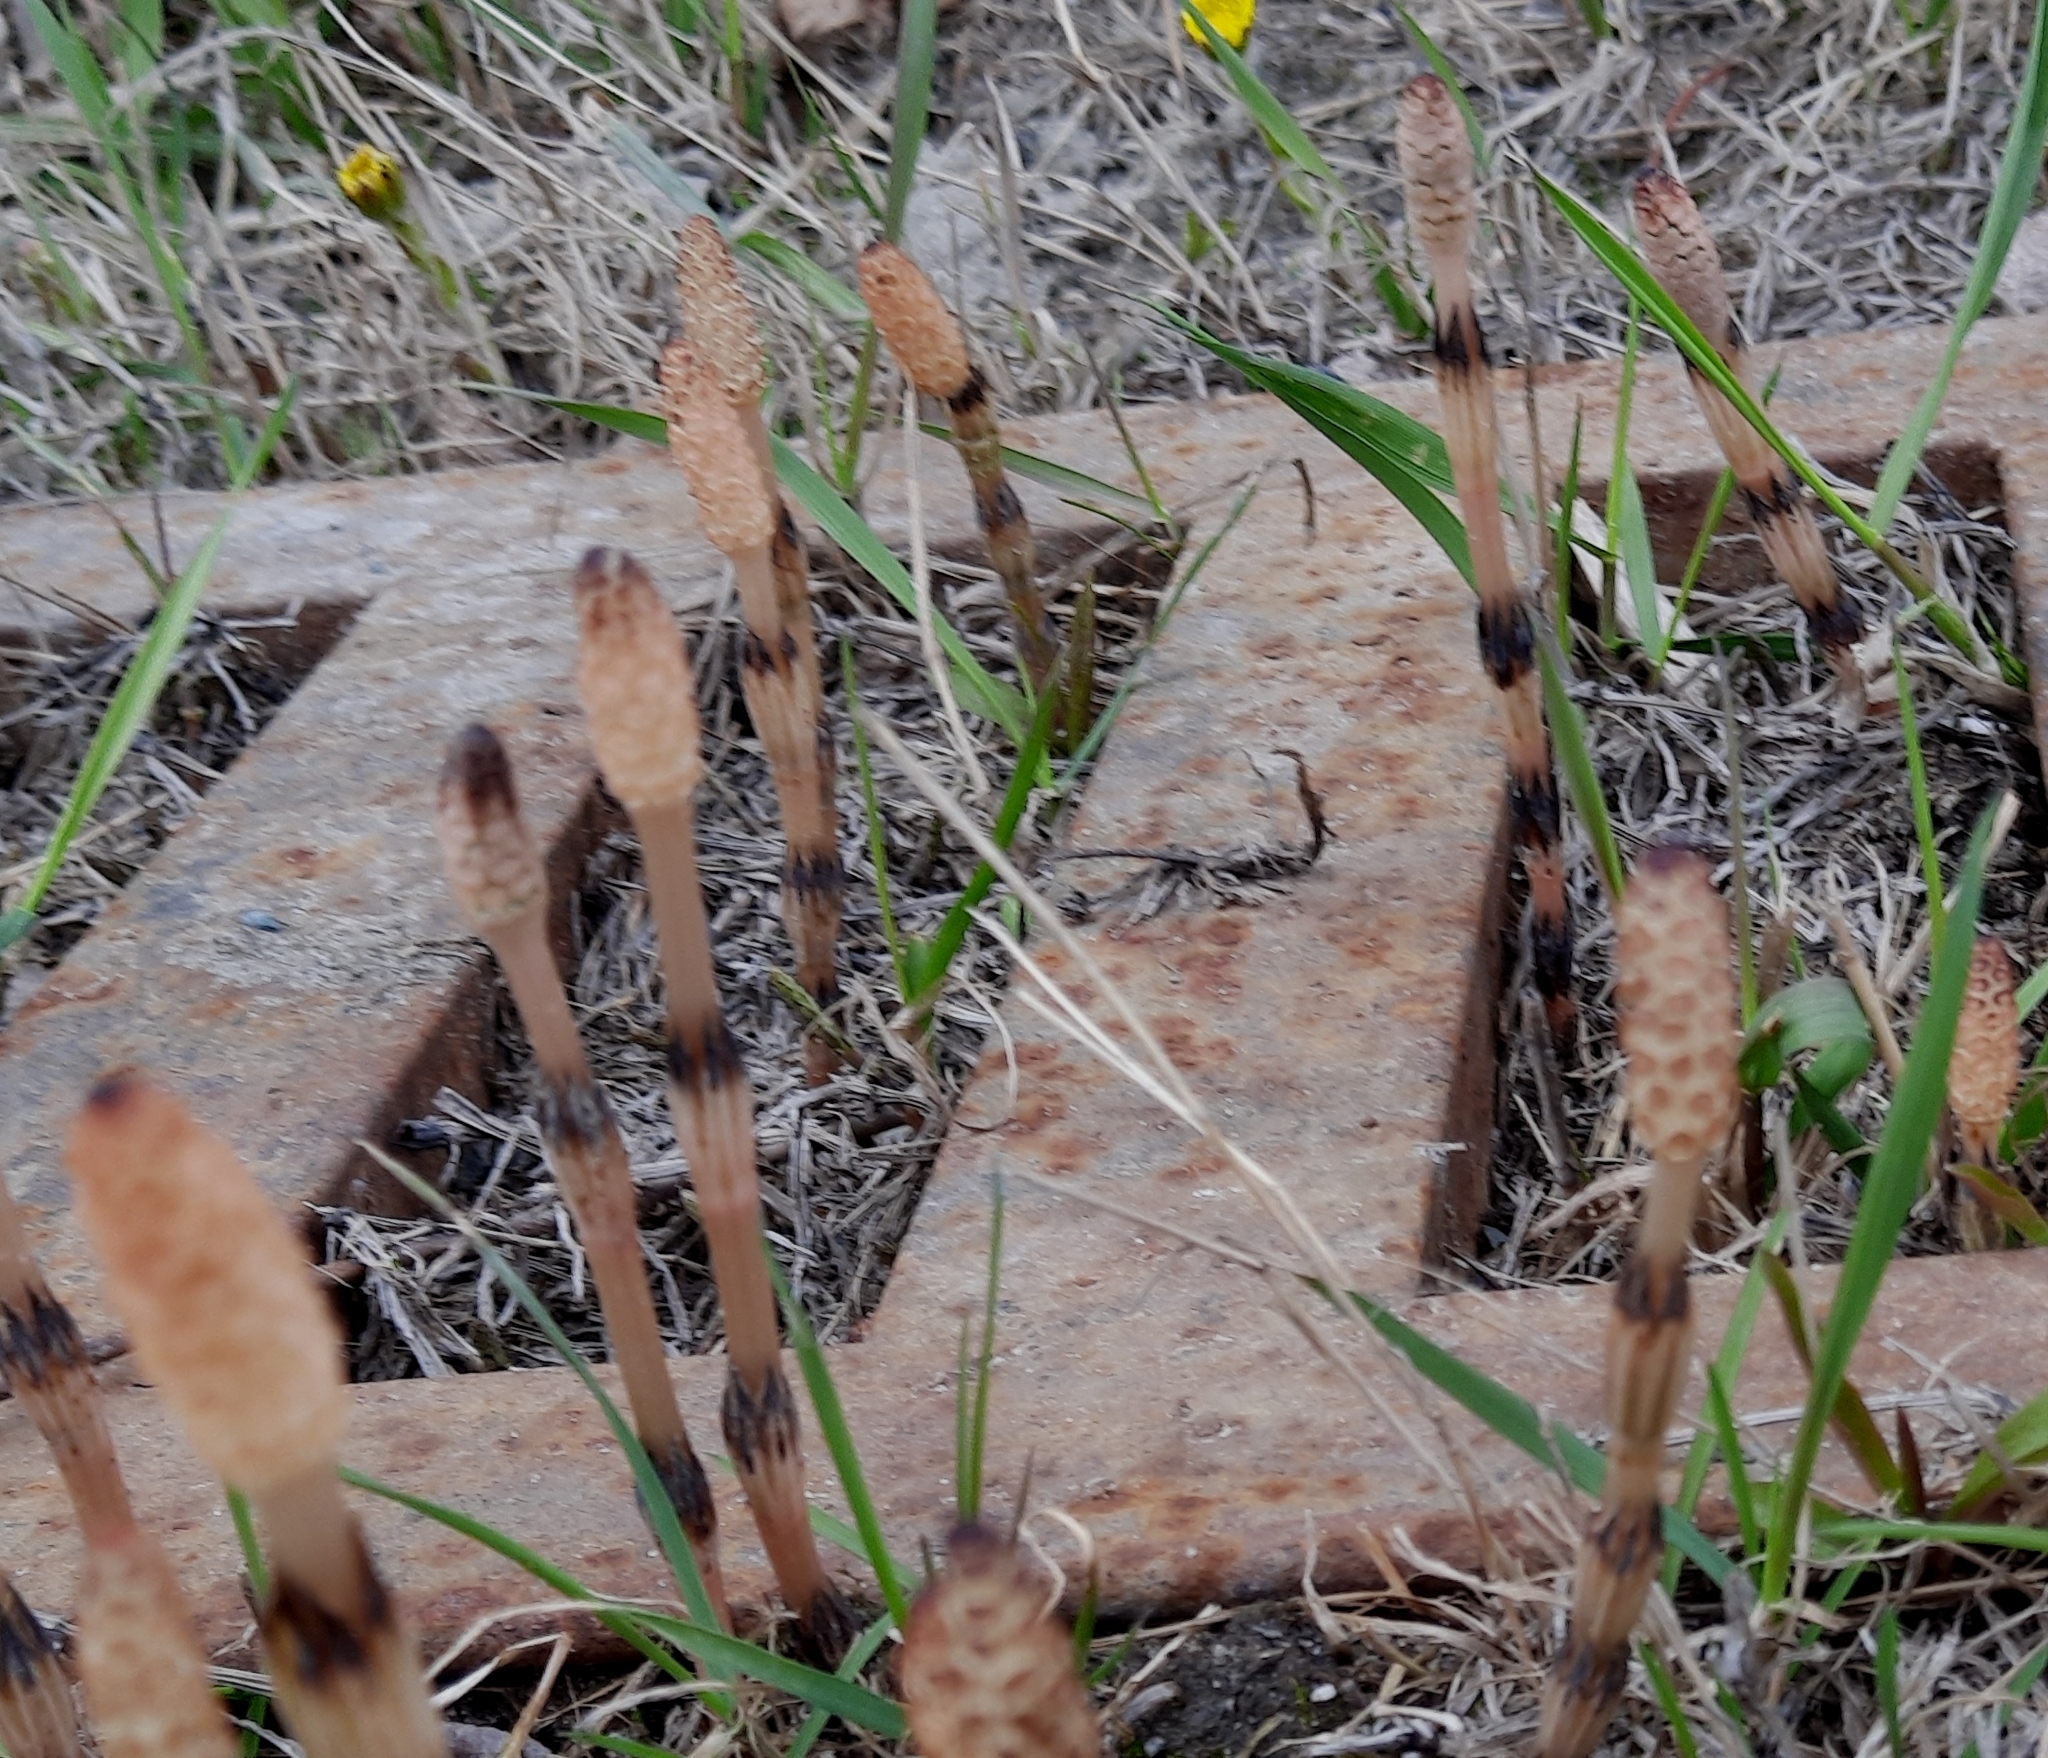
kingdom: Plantae
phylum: Tracheophyta
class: Polypodiopsida
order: Equisetales
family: Equisetaceae
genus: Equisetum
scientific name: Equisetum arvense
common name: Field horsetail
